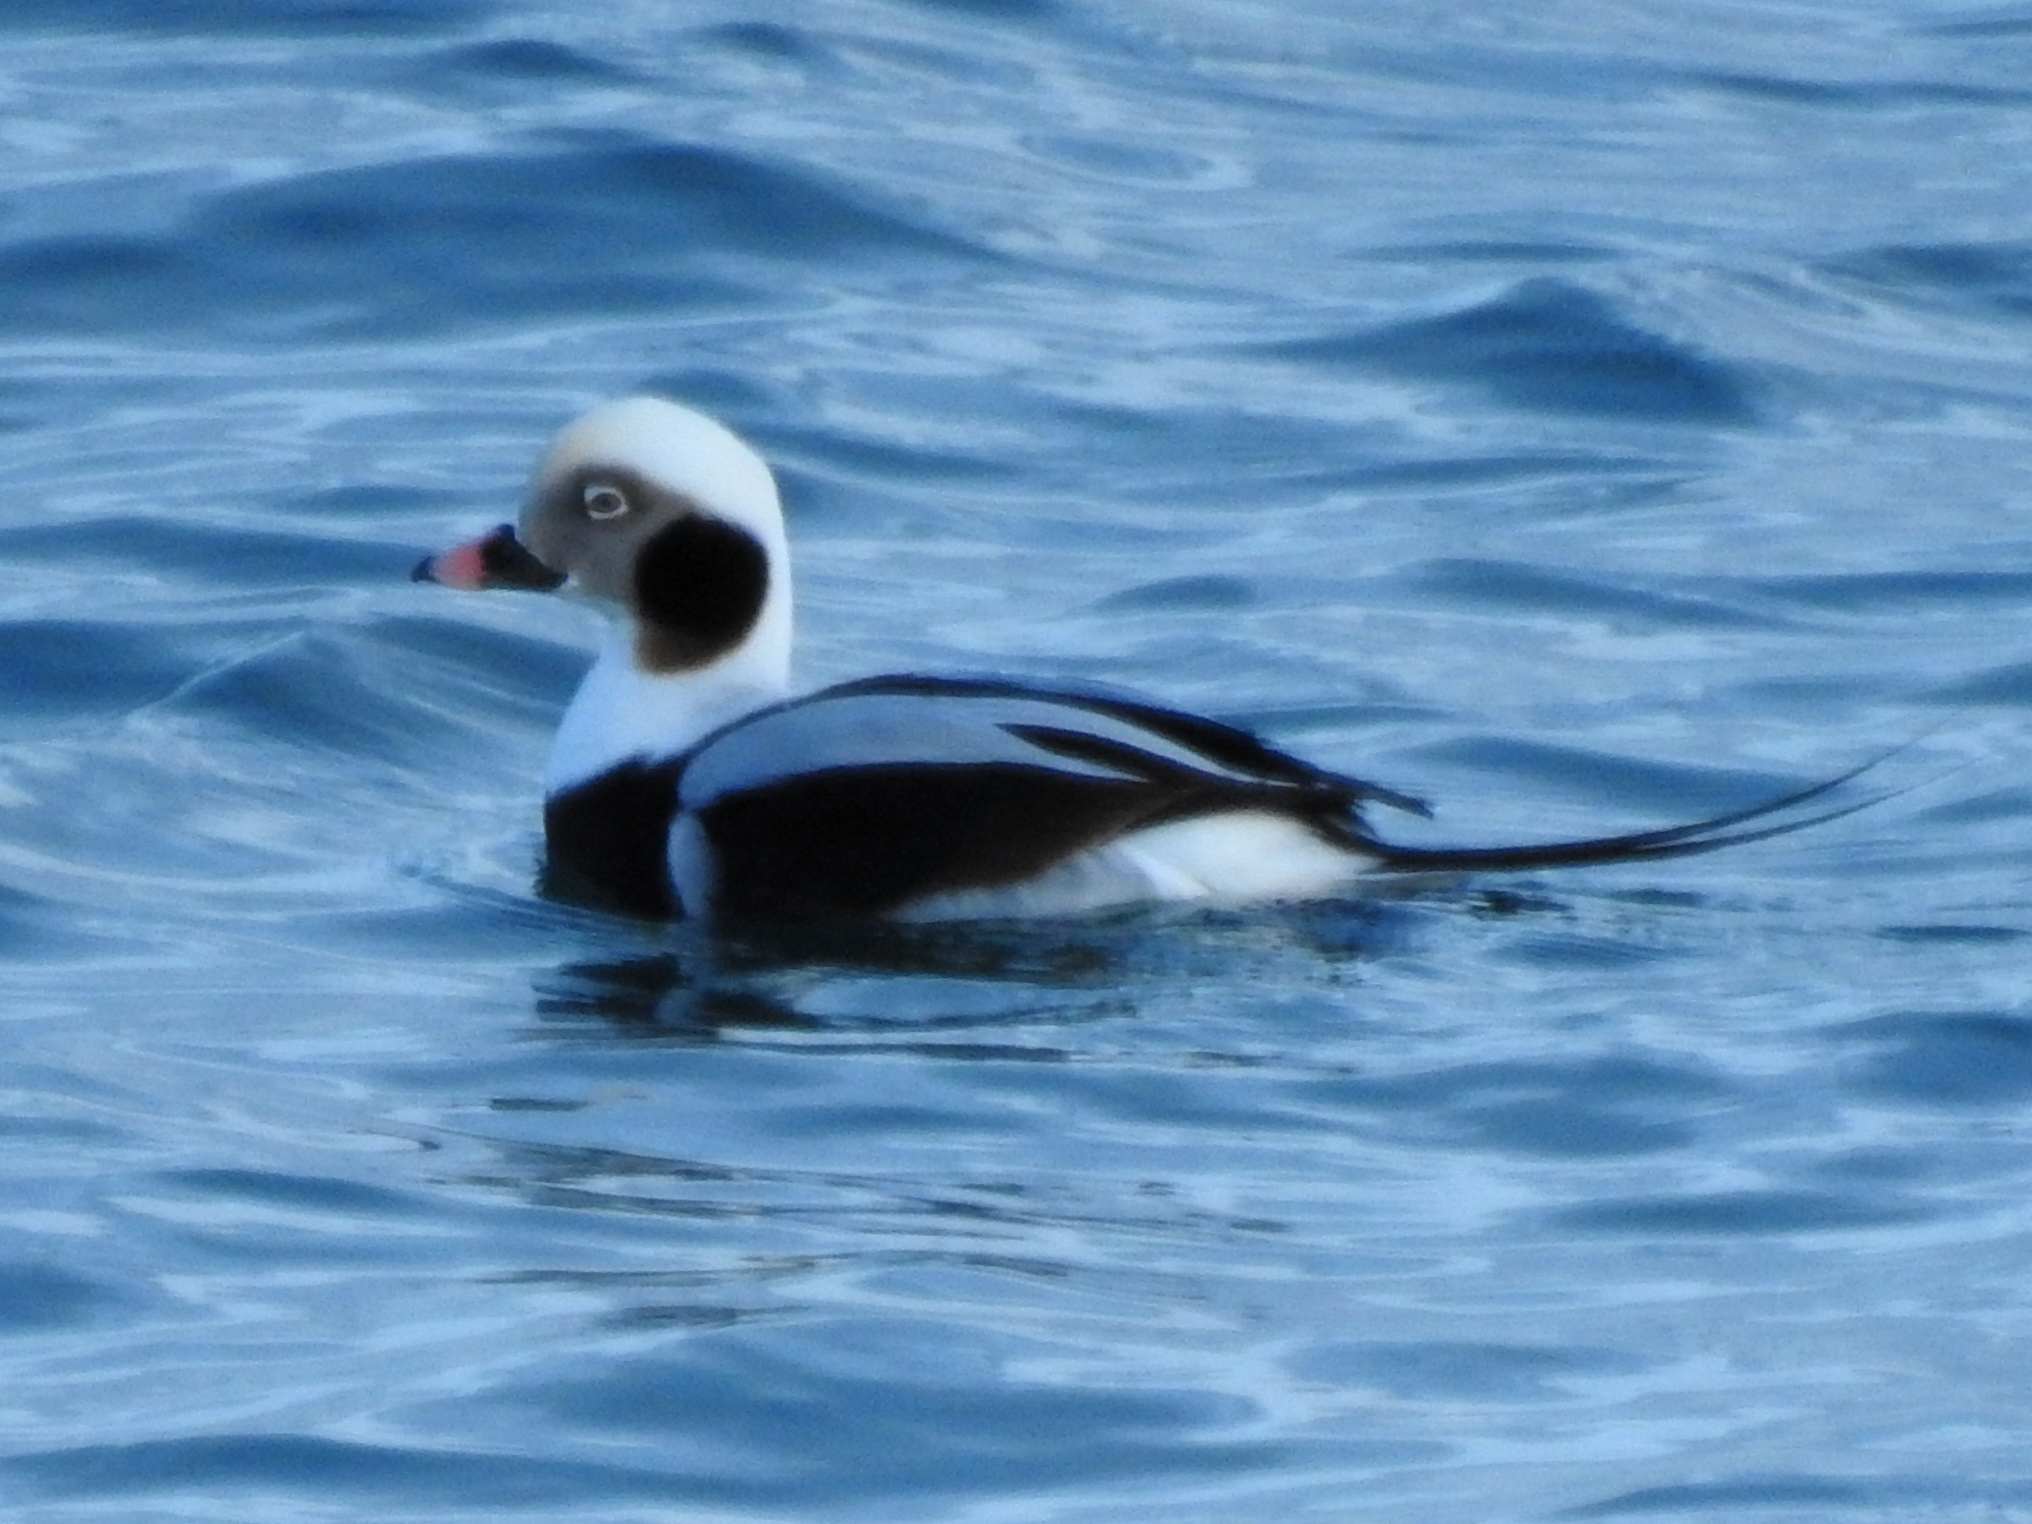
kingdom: Animalia
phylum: Chordata
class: Aves
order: Anseriformes
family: Anatidae
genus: Clangula
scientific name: Clangula hyemalis
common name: Long-tailed duck
